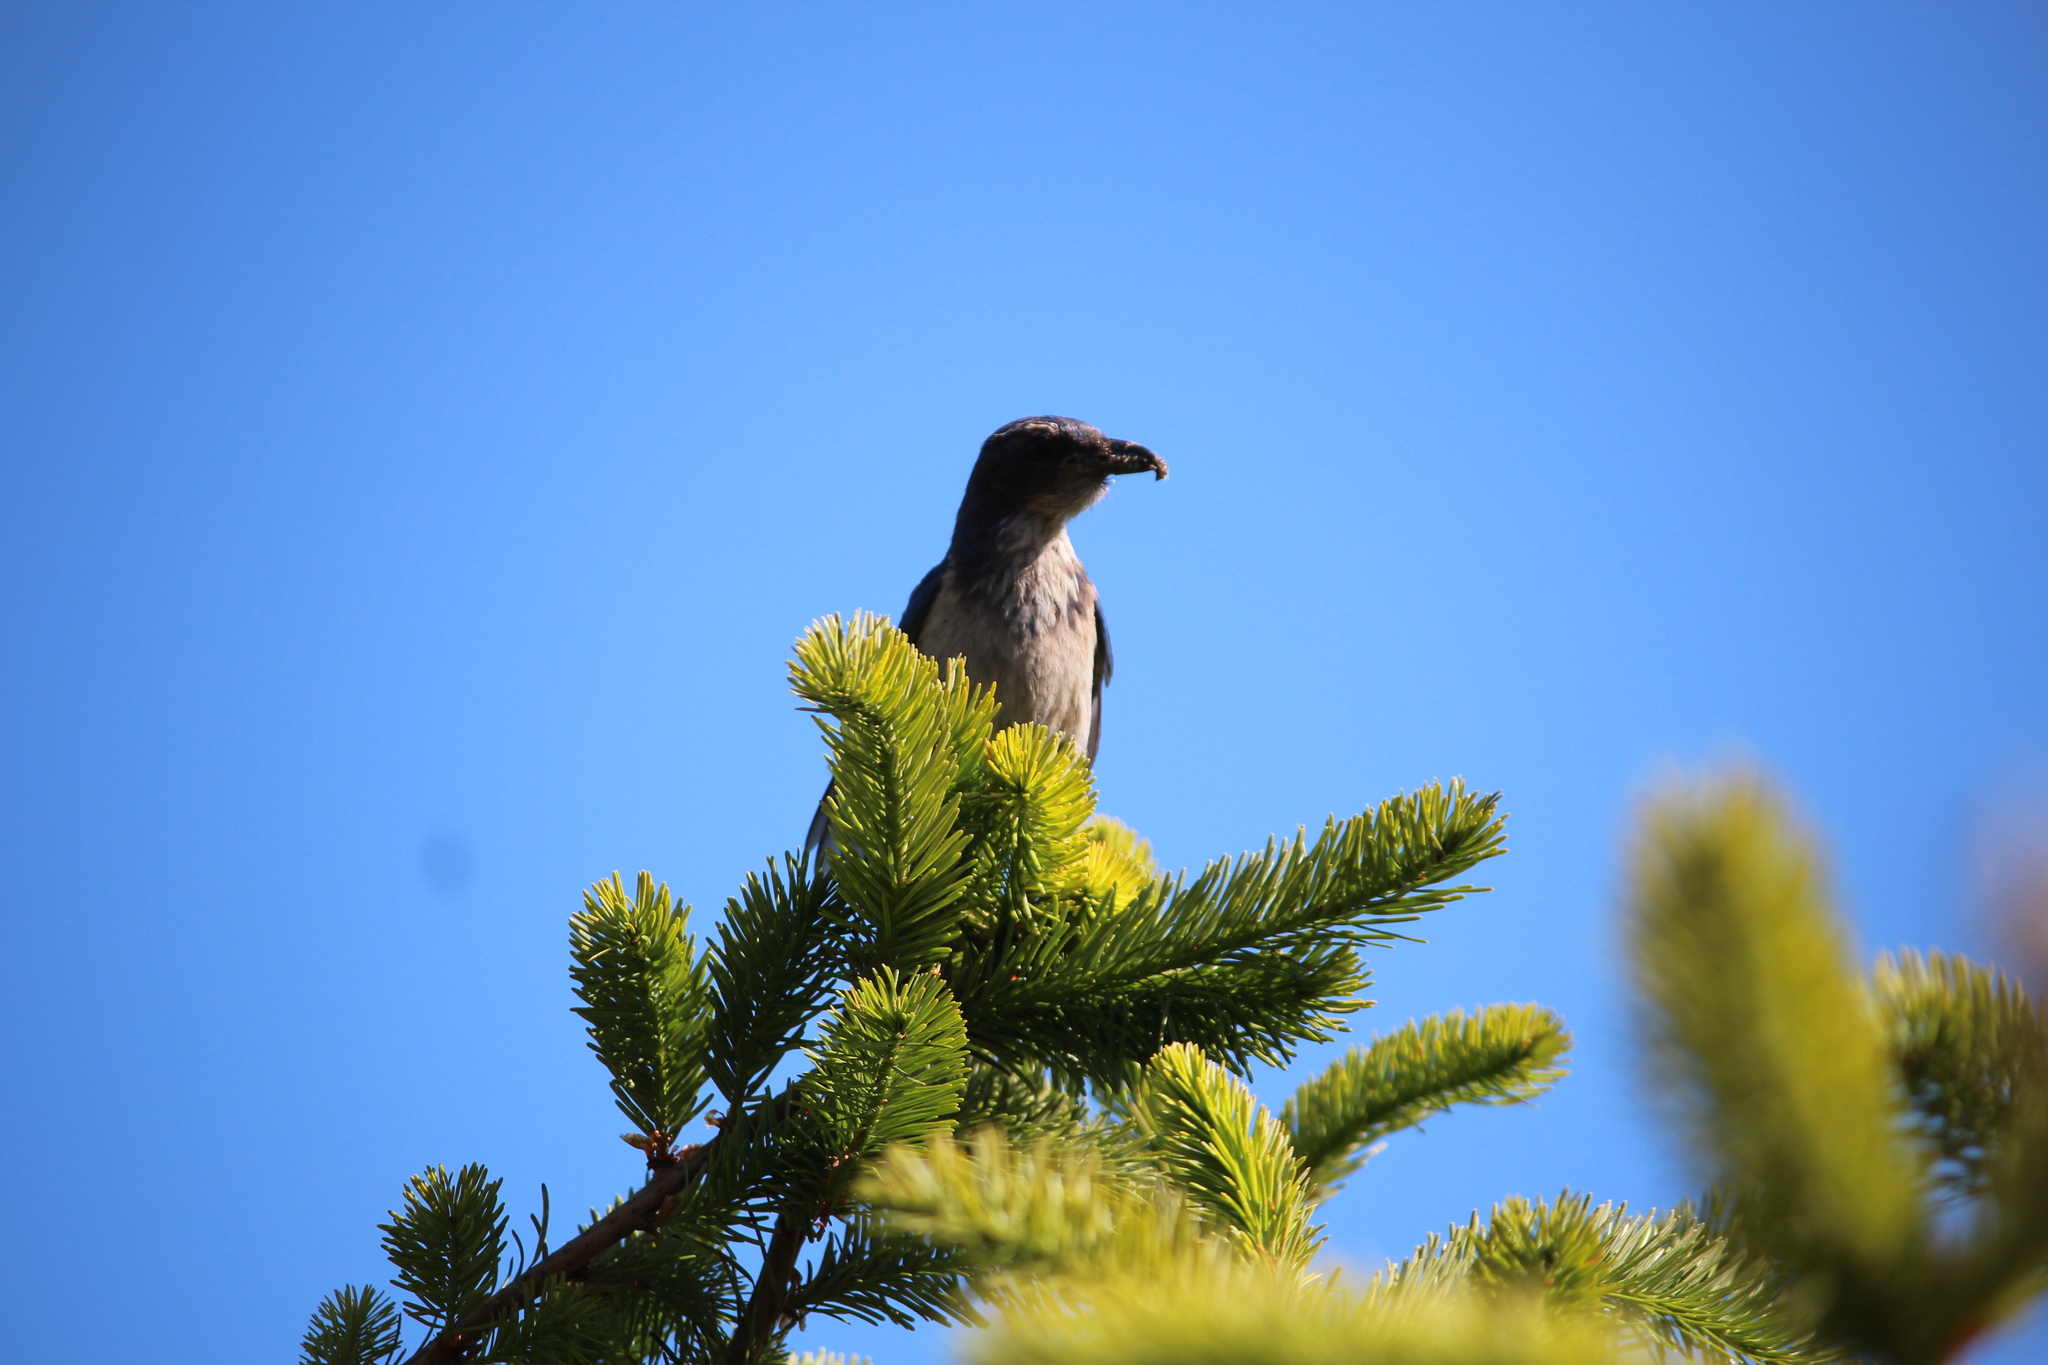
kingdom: Animalia
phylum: Chordata
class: Aves
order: Passeriformes
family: Corvidae
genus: Aphelocoma
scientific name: Aphelocoma californica
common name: California scrub-jay
